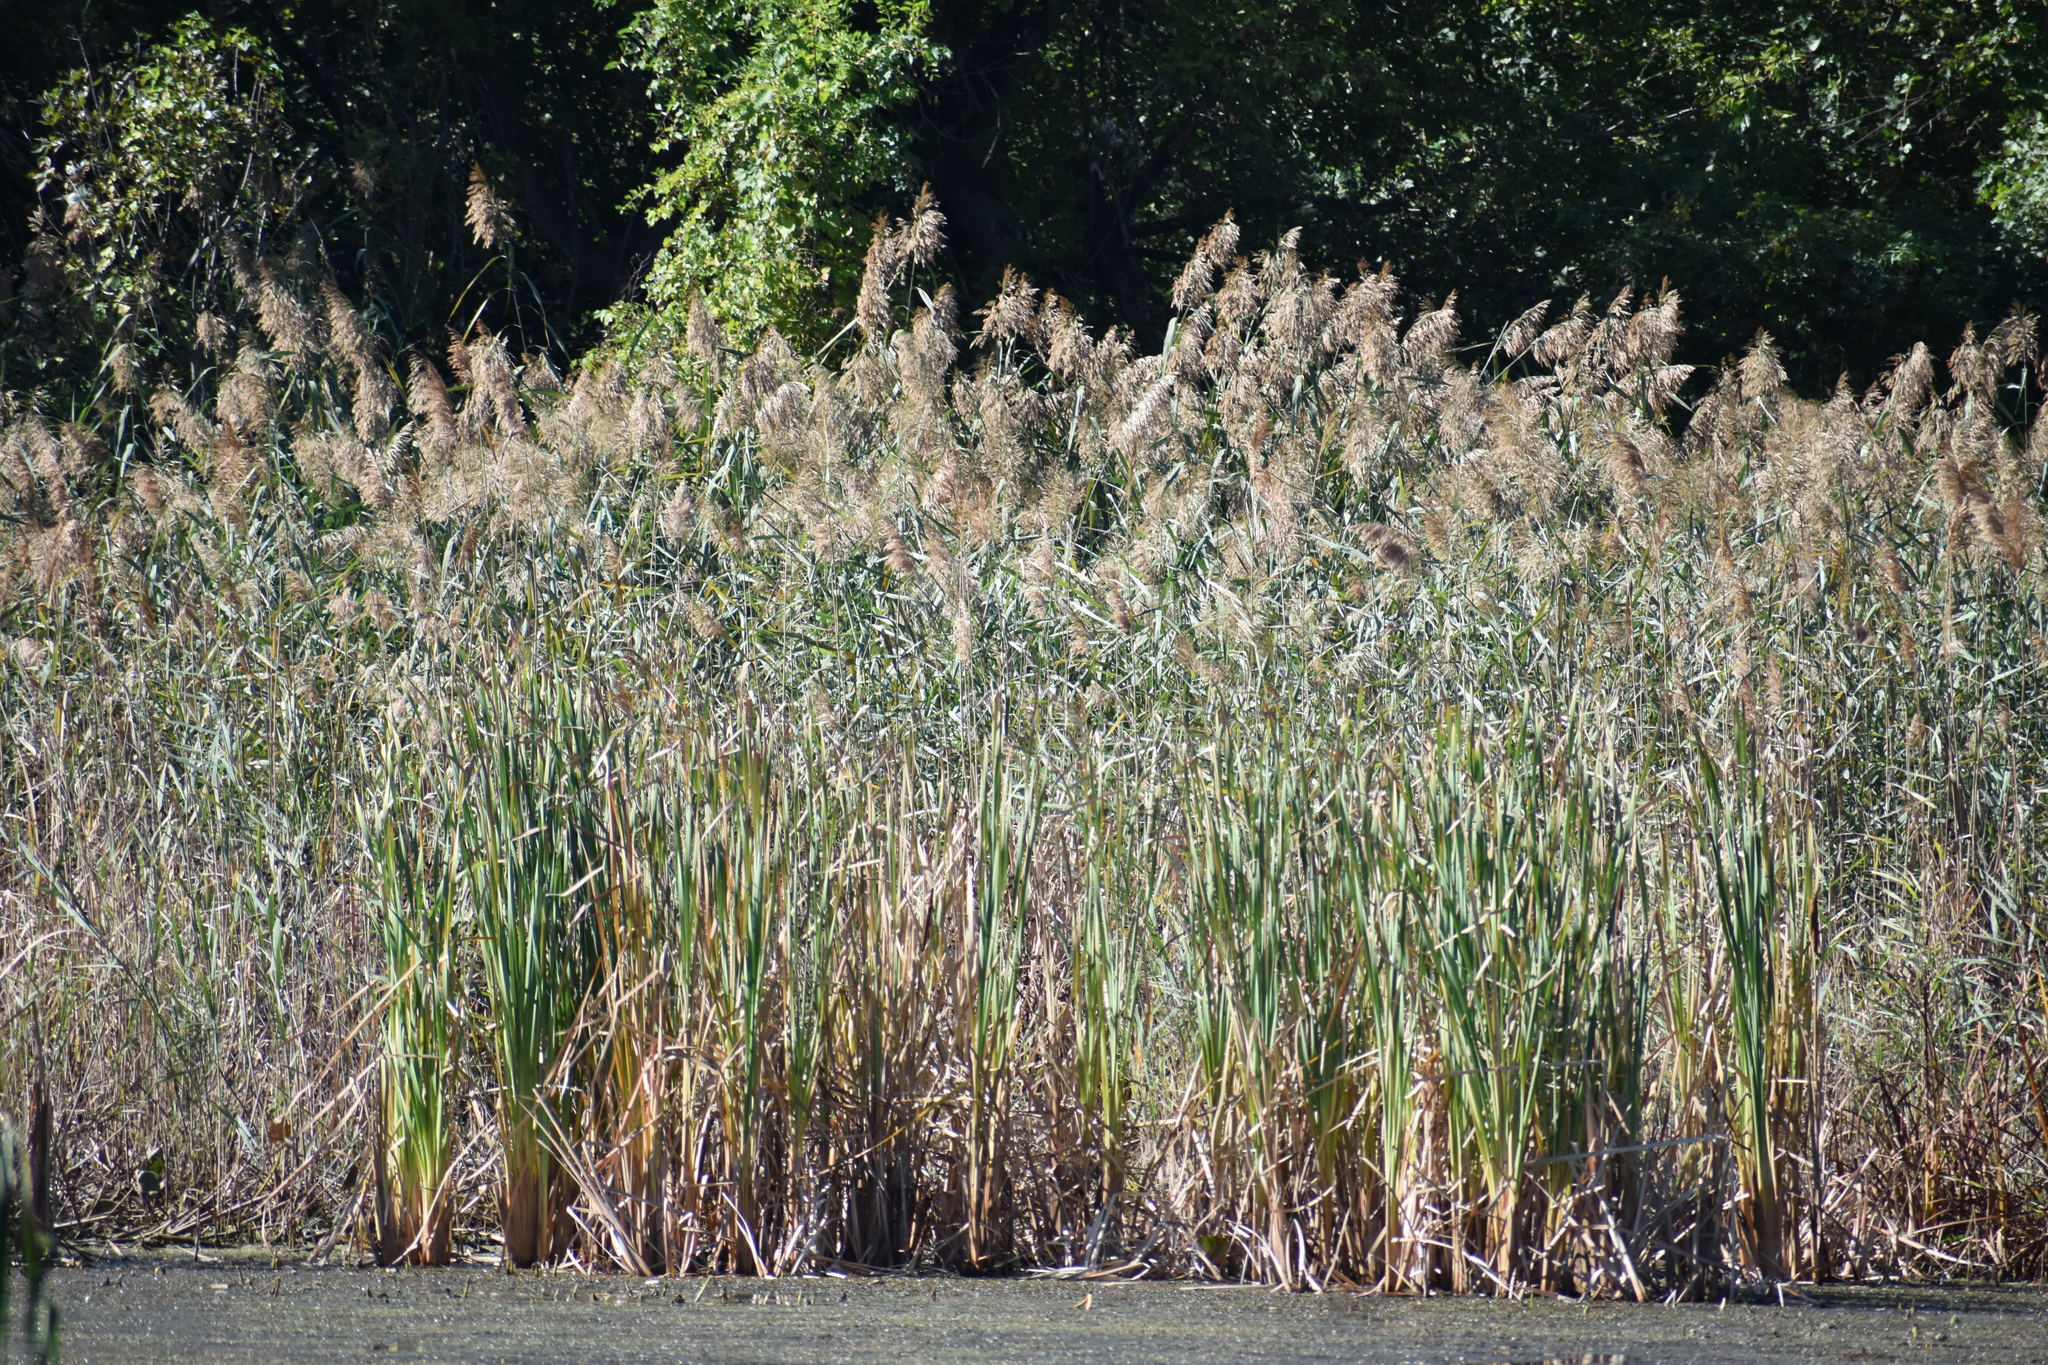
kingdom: Plantae
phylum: Tracheophyta
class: Liliopsida
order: Poales
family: Poaceae
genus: Phragmites
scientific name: Phragmites australis
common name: Common reed
